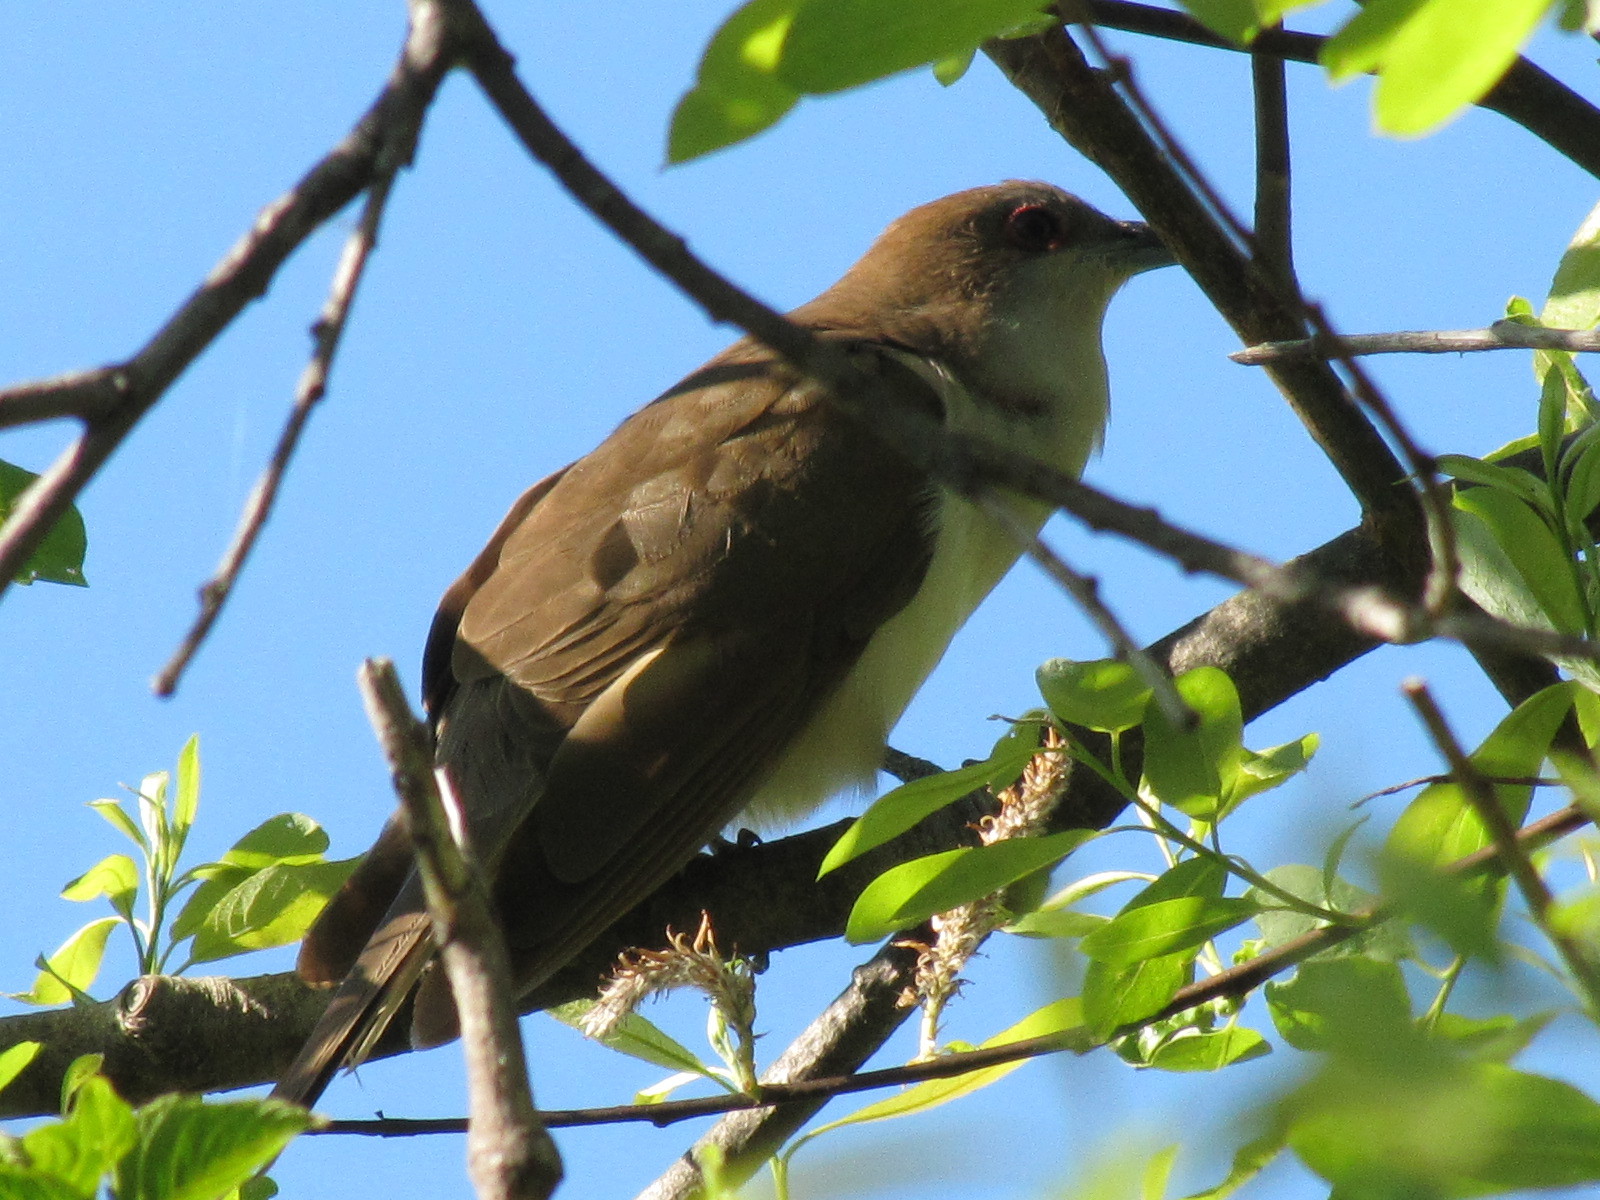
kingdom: Animalia
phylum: Chordata
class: Aves
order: Cuculiformes
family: Cuculidae
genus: Coccyzus
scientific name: Coccyzus erythropthalmus
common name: Black-billed cuckoo
